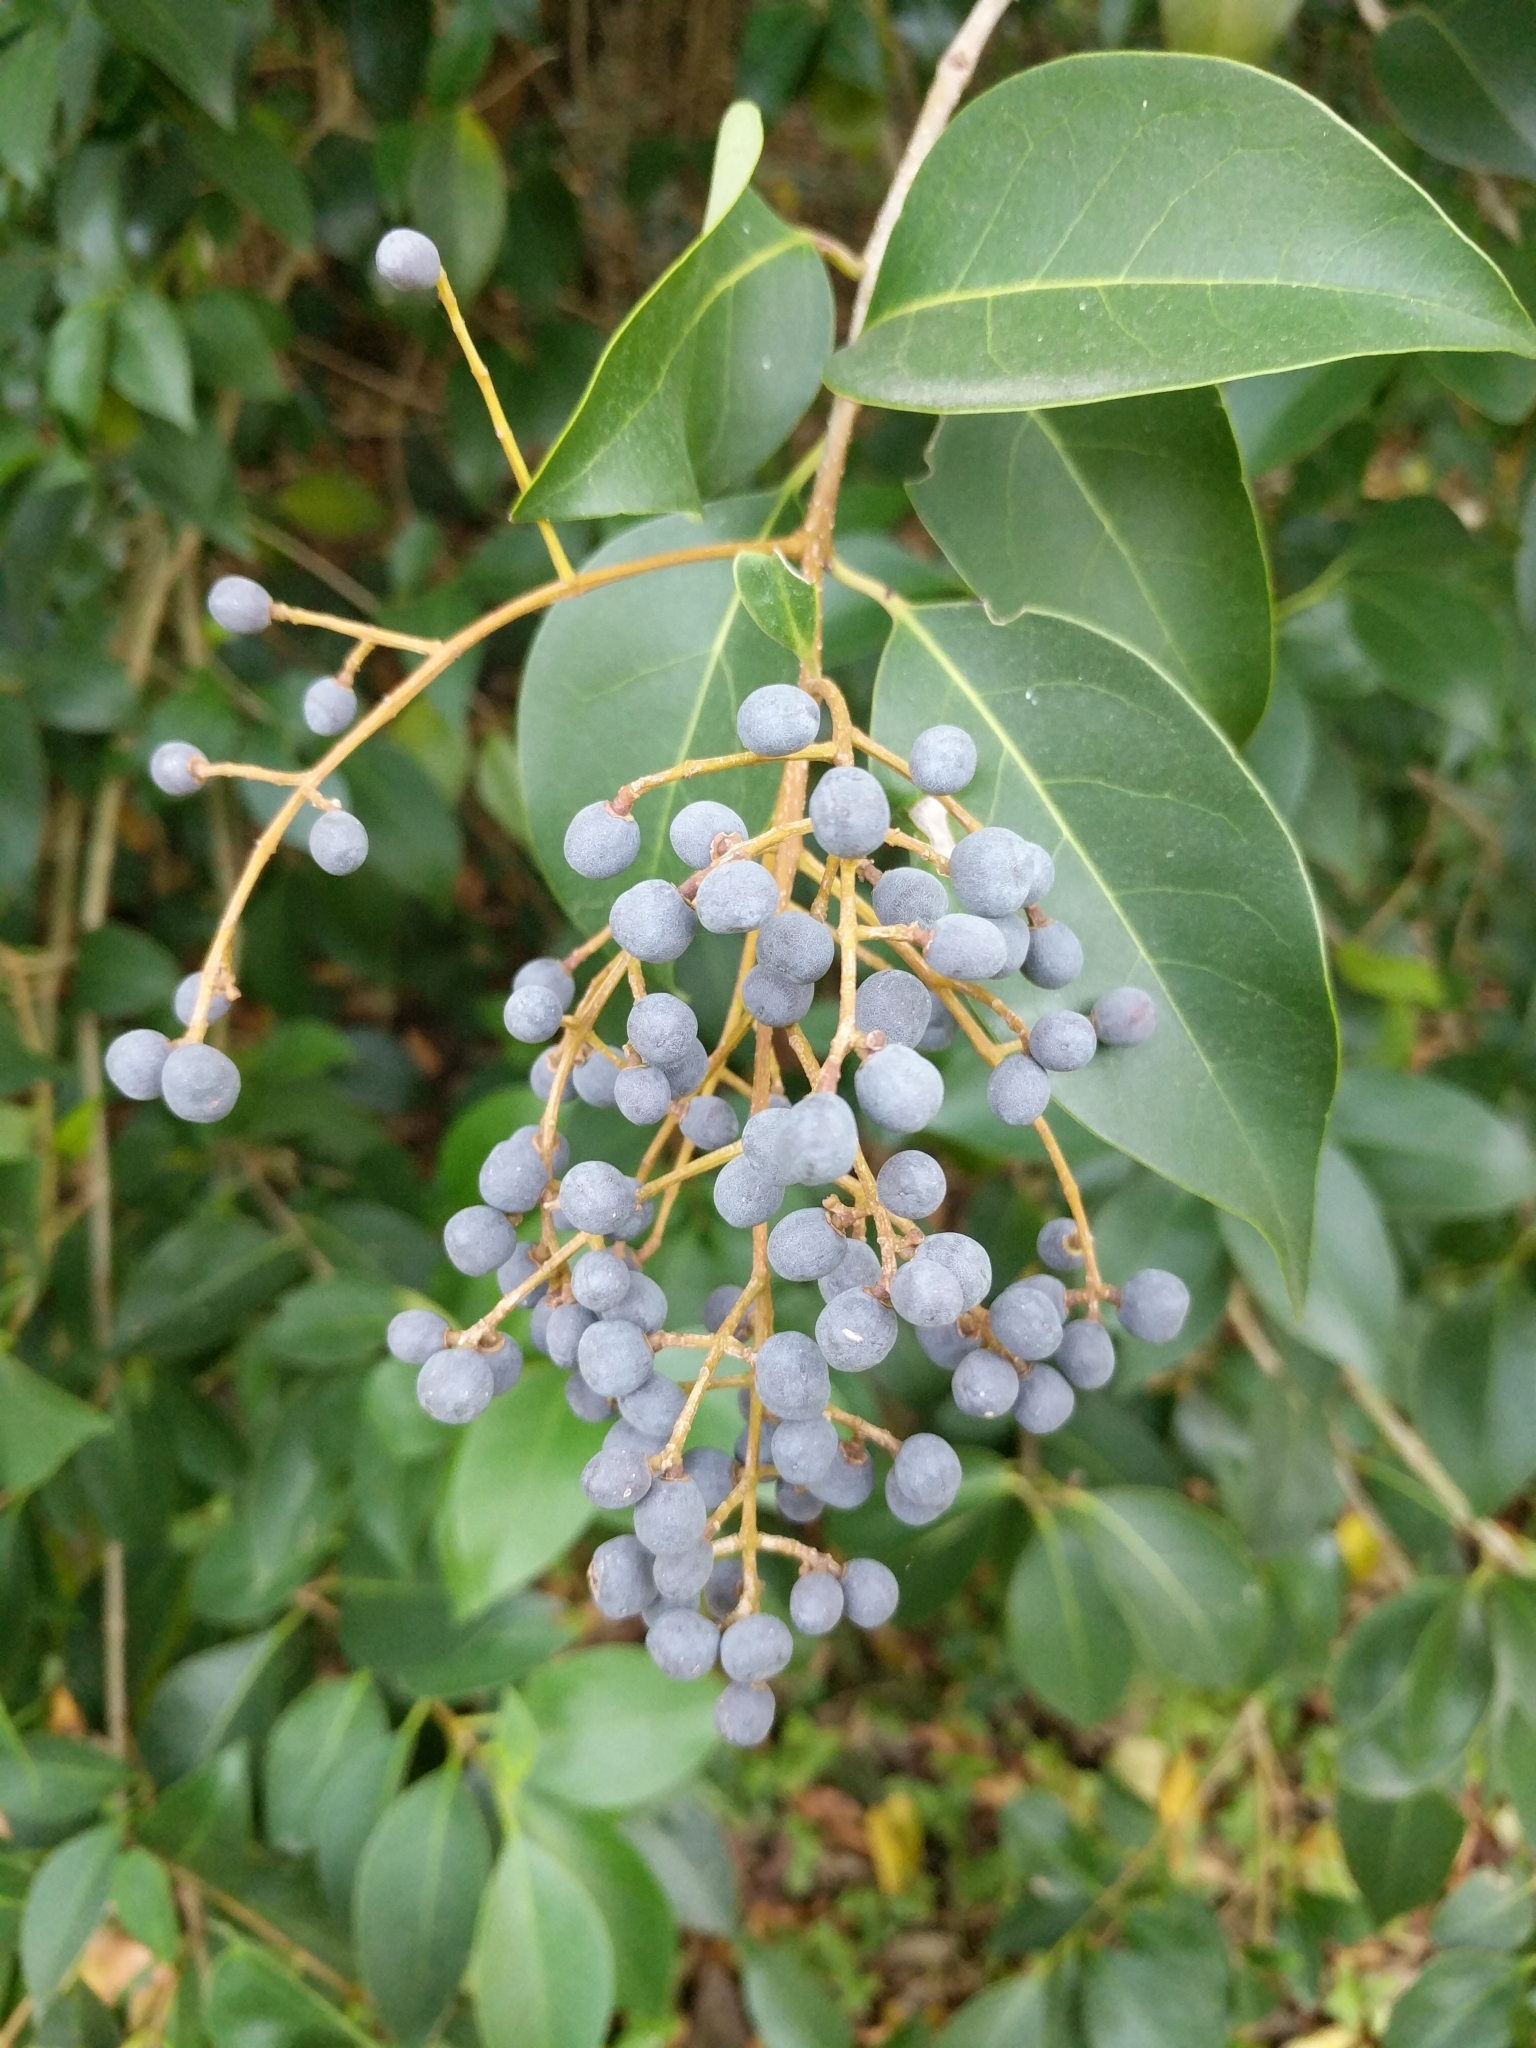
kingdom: Plantae
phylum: Tracheophyta
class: Magnoliopsida
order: Lamiales
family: Oleaceae
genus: Ligustrum
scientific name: Ligustrum lucidum
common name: Glossy privet
